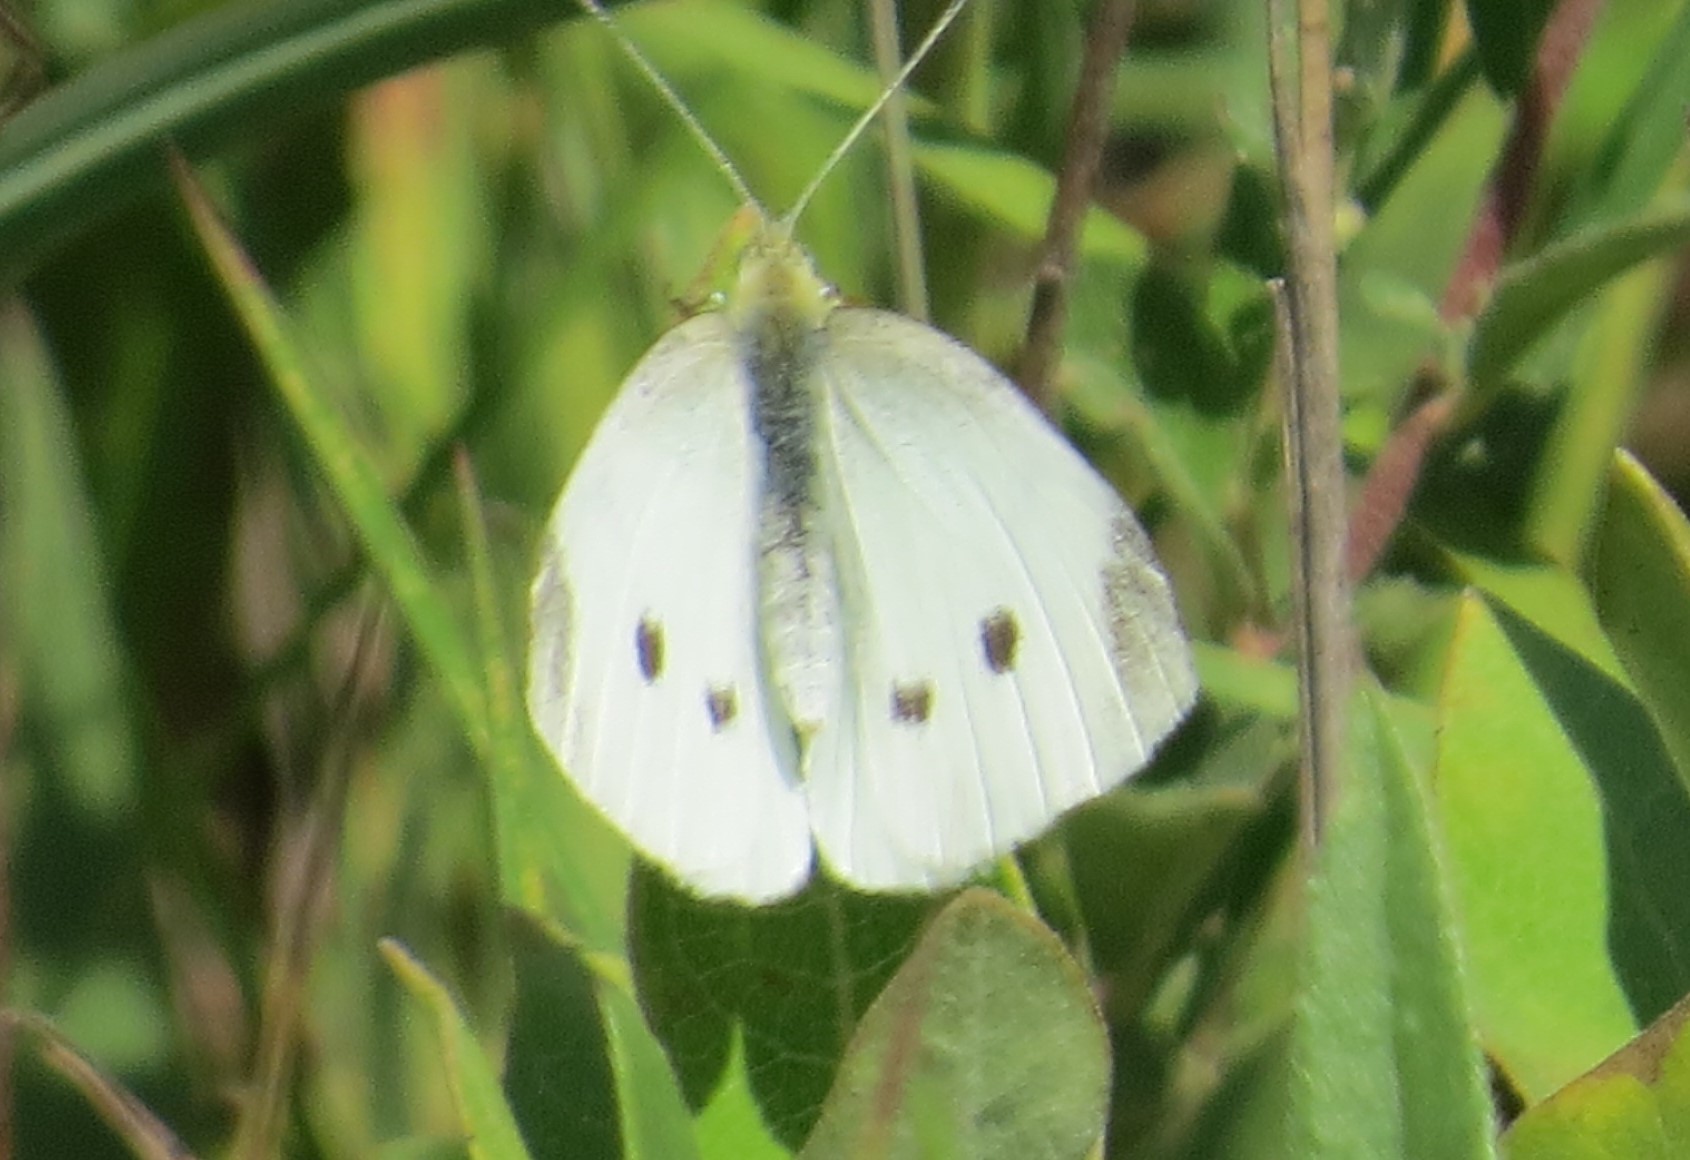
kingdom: Animalia
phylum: Arthropoda
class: Insecta
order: Lepidoptera
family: Pieridae
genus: Pieris
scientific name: Pieris rapae
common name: Small white
